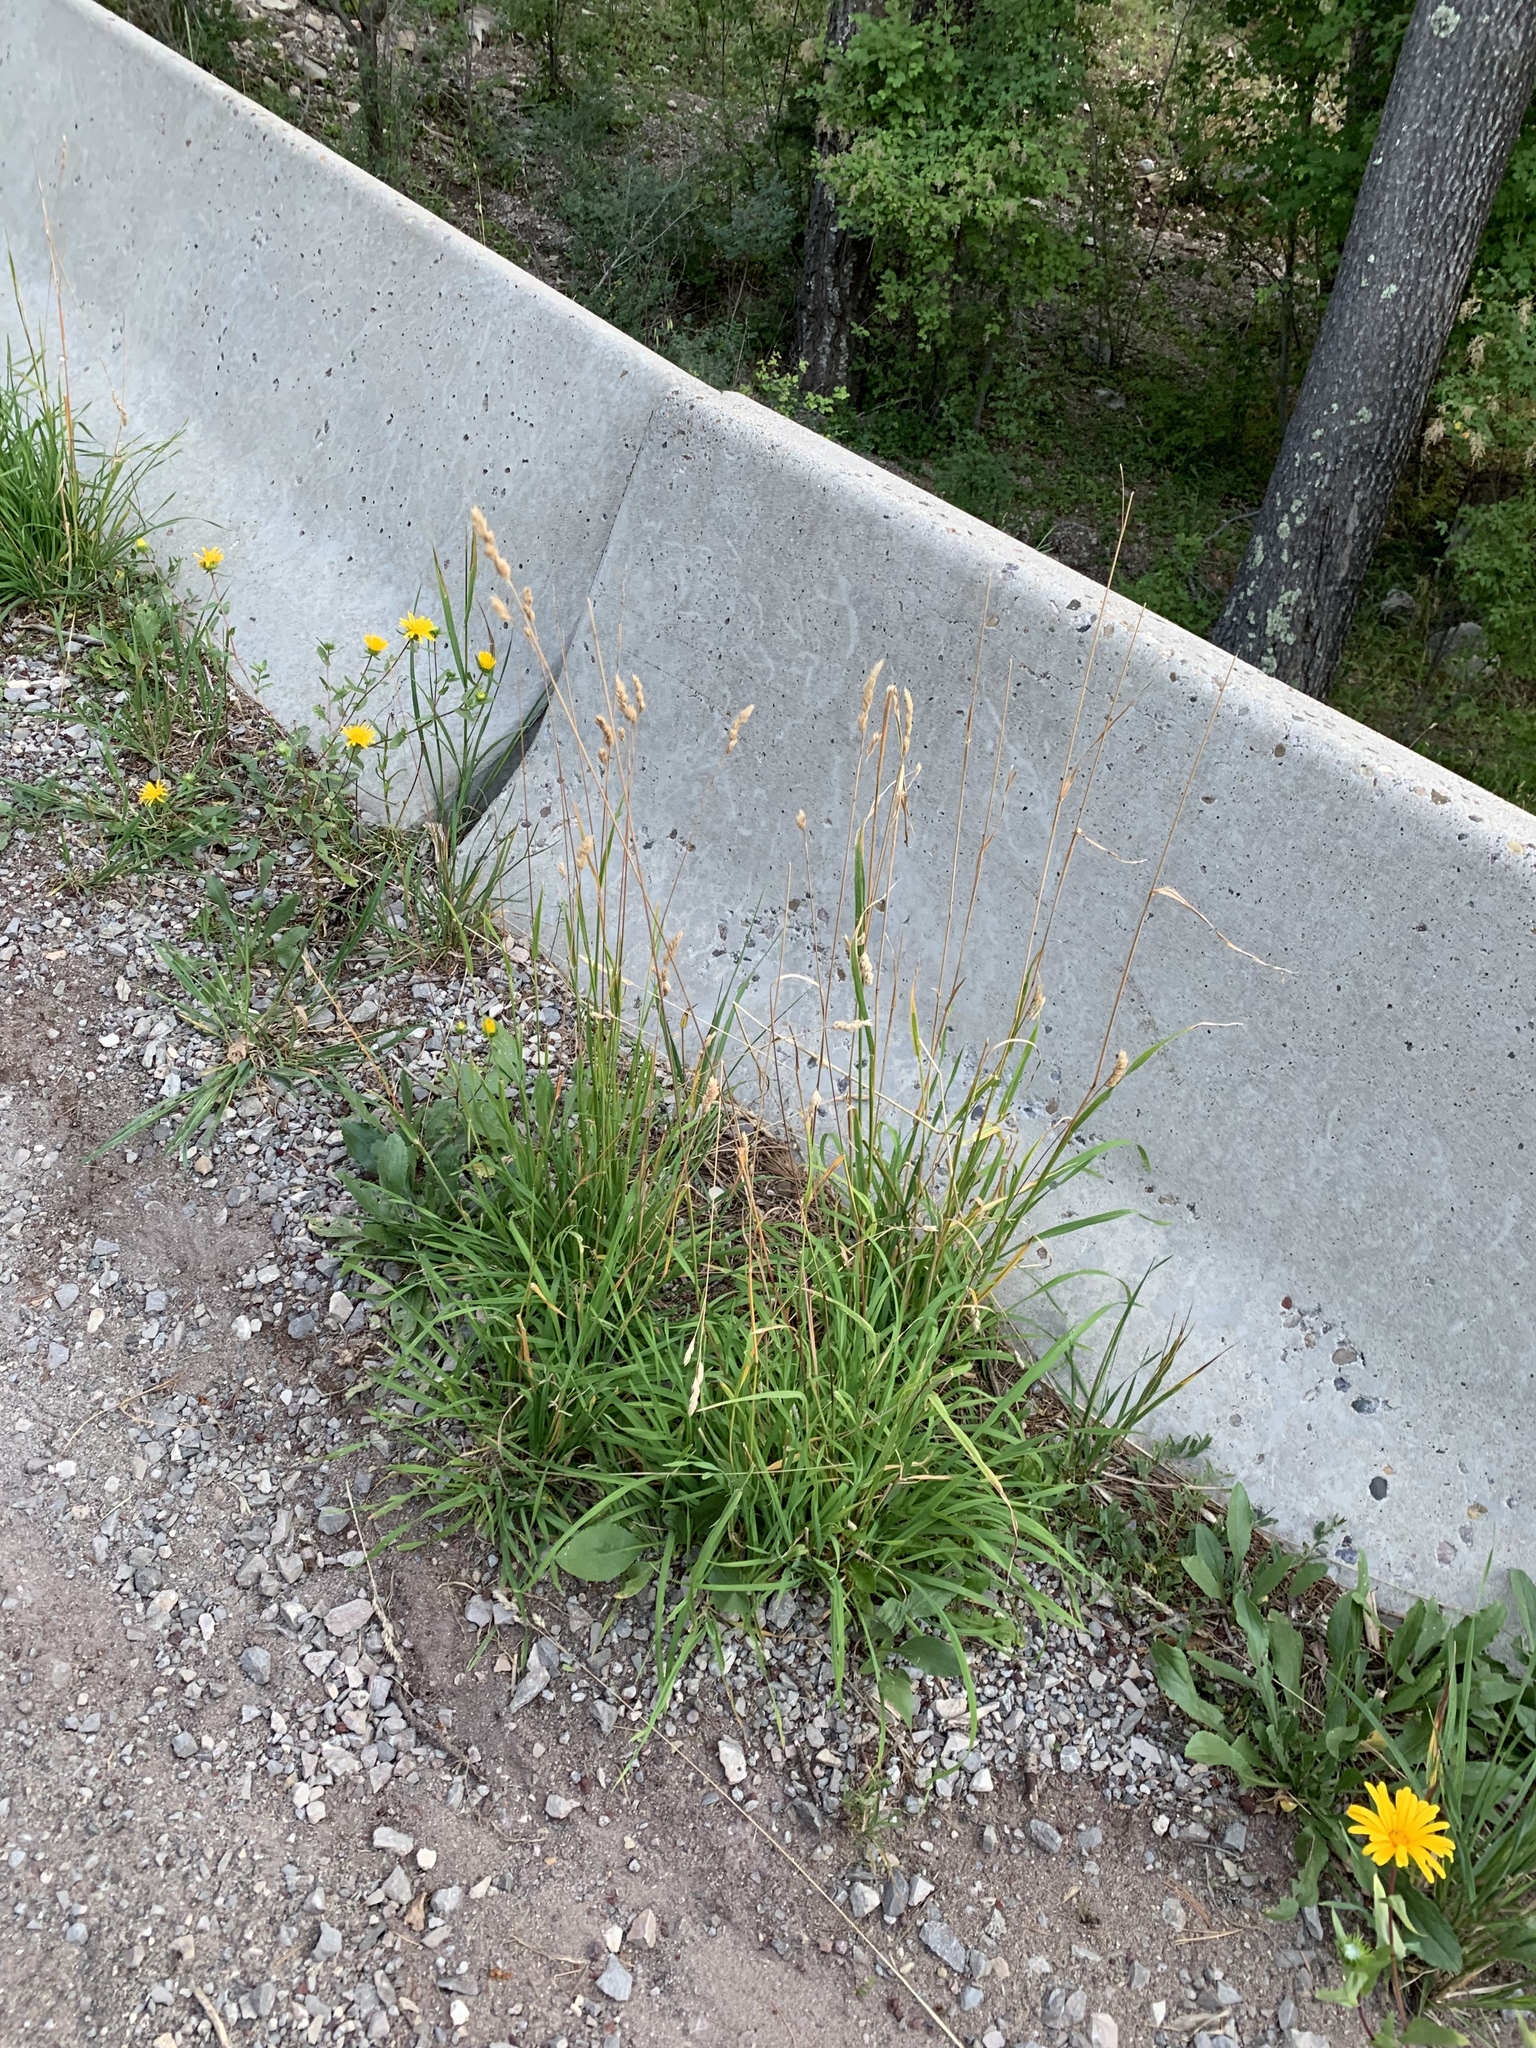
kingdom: Plantae
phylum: Tracheophyta
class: Liliopsida
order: Poales
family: Poaceae
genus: Dactylis
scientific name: Dactylis glomerata
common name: Orchardgrass
